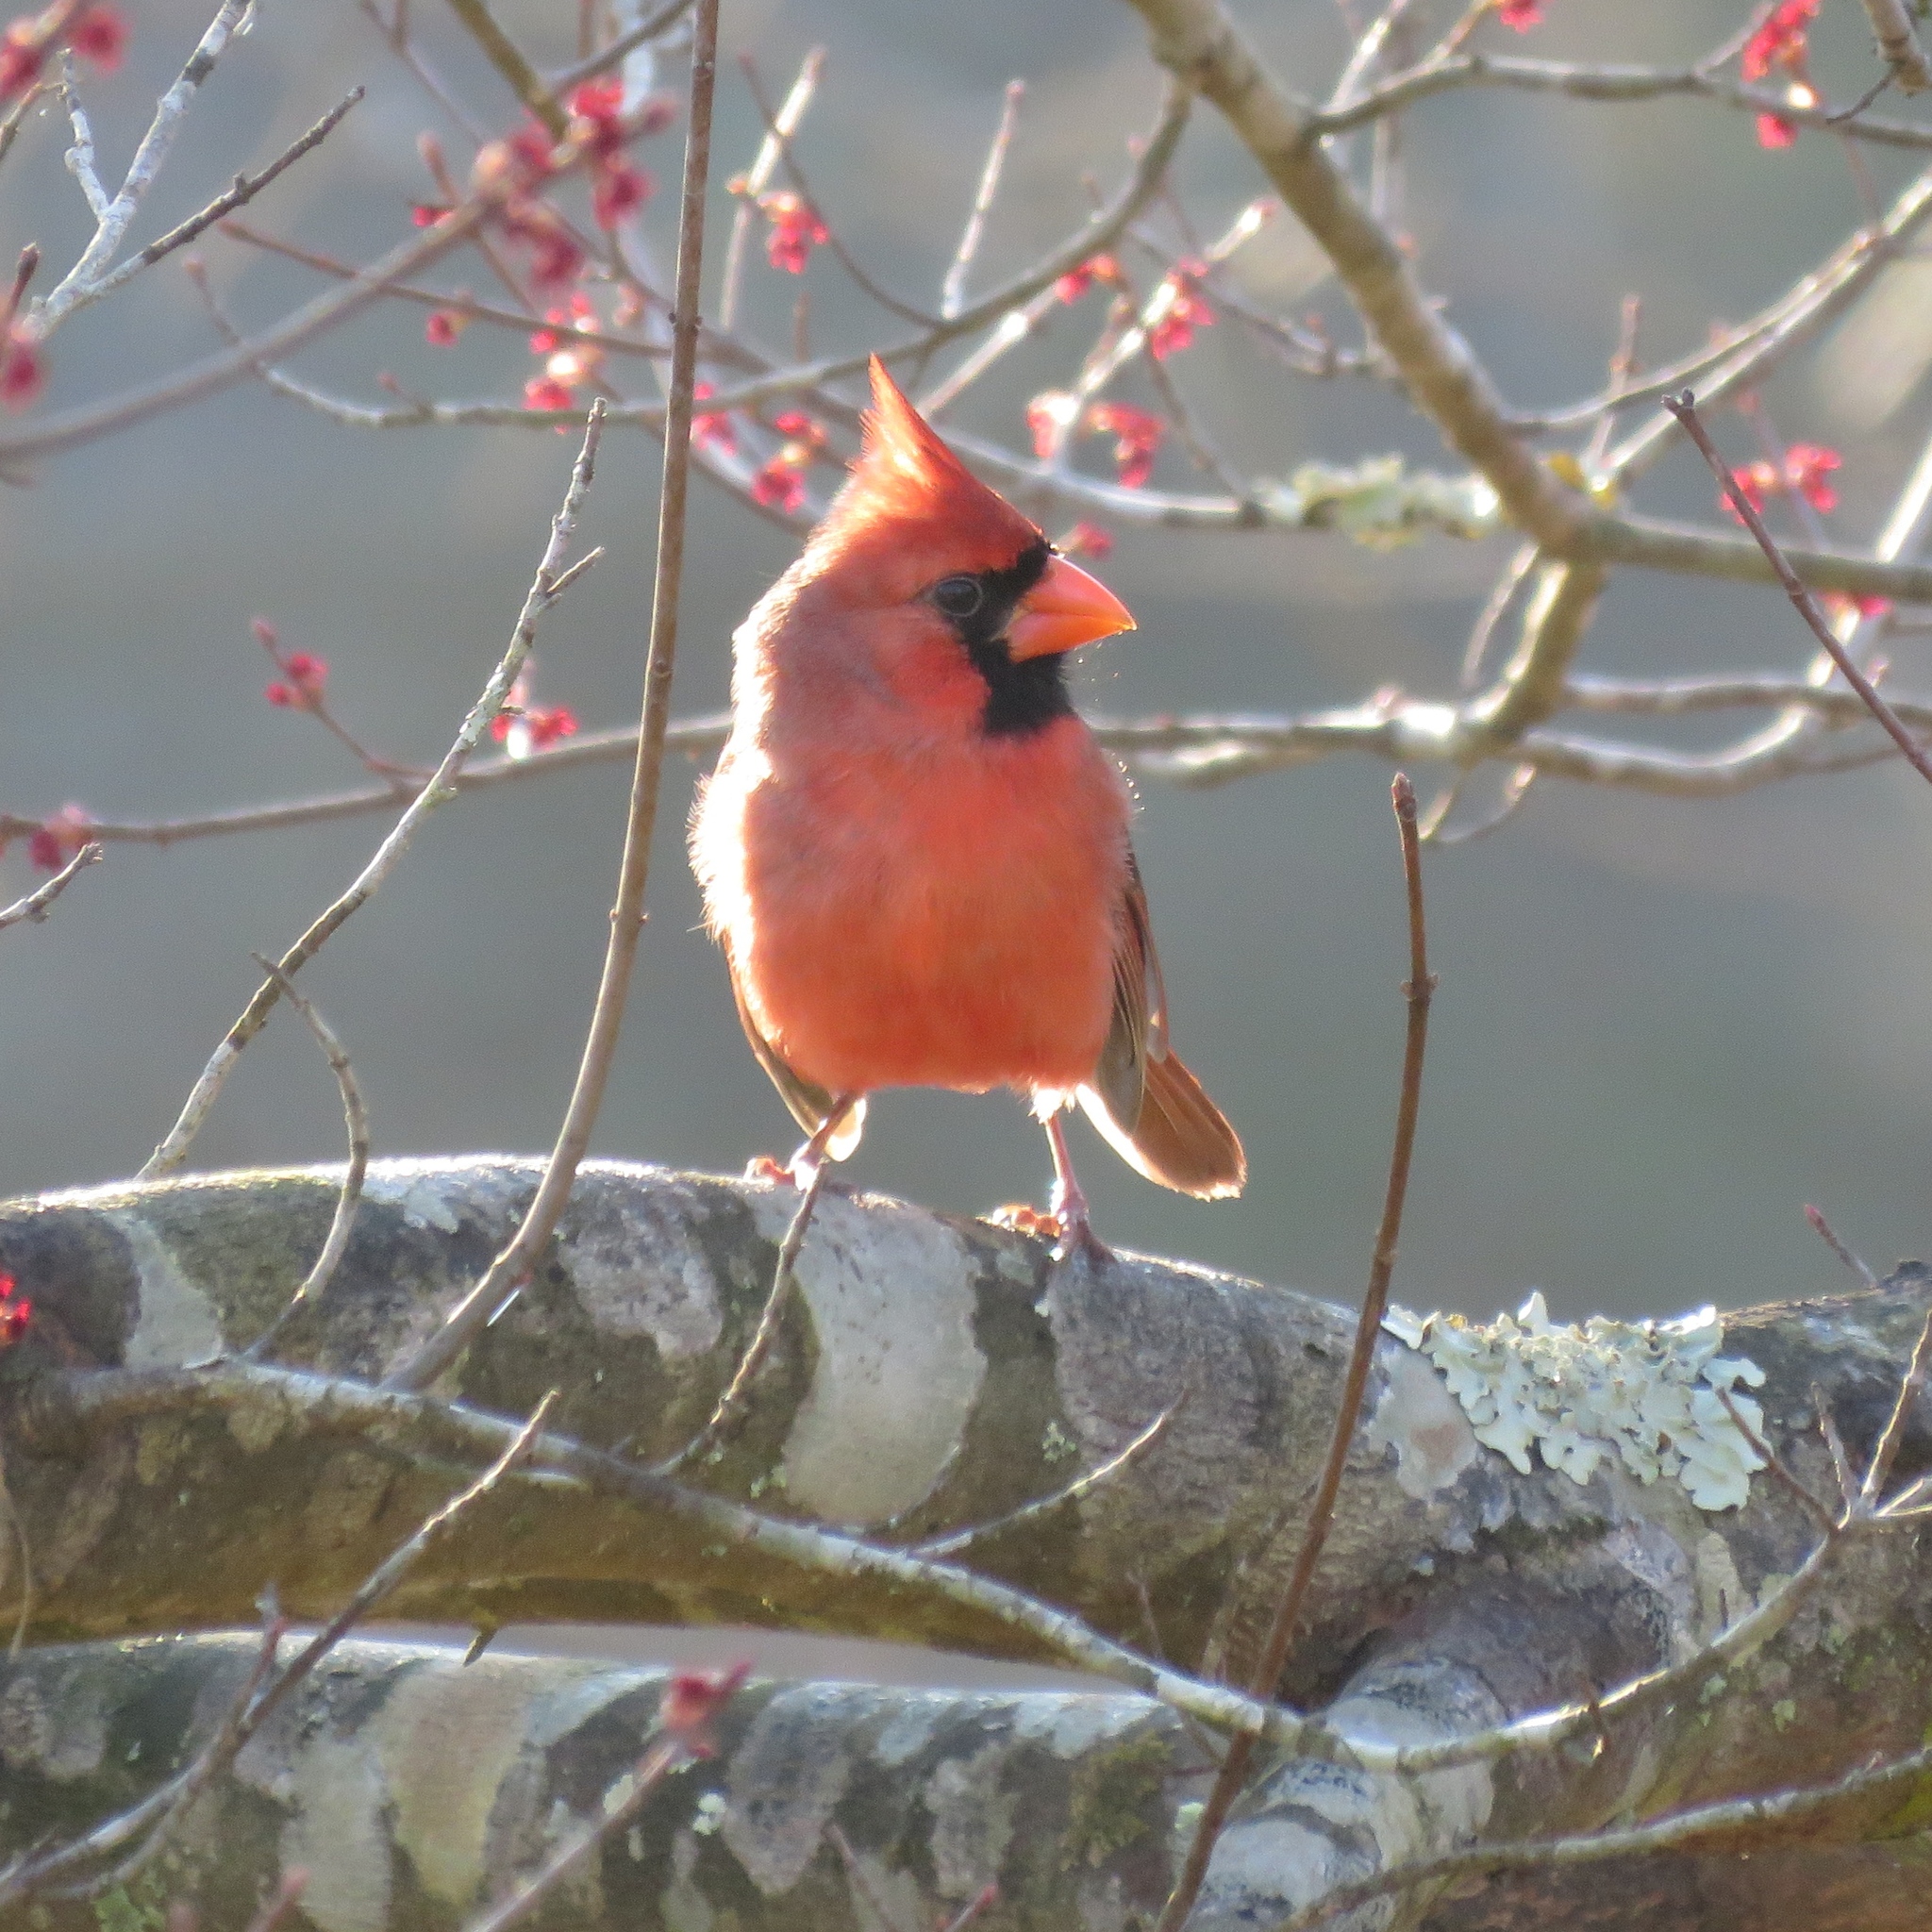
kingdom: Animalia
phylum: Chordata
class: Aves
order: Passeriformes
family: Cardinalidae
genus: Cardinalis
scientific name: Cardinalis cardinalis
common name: Northern cardinal
